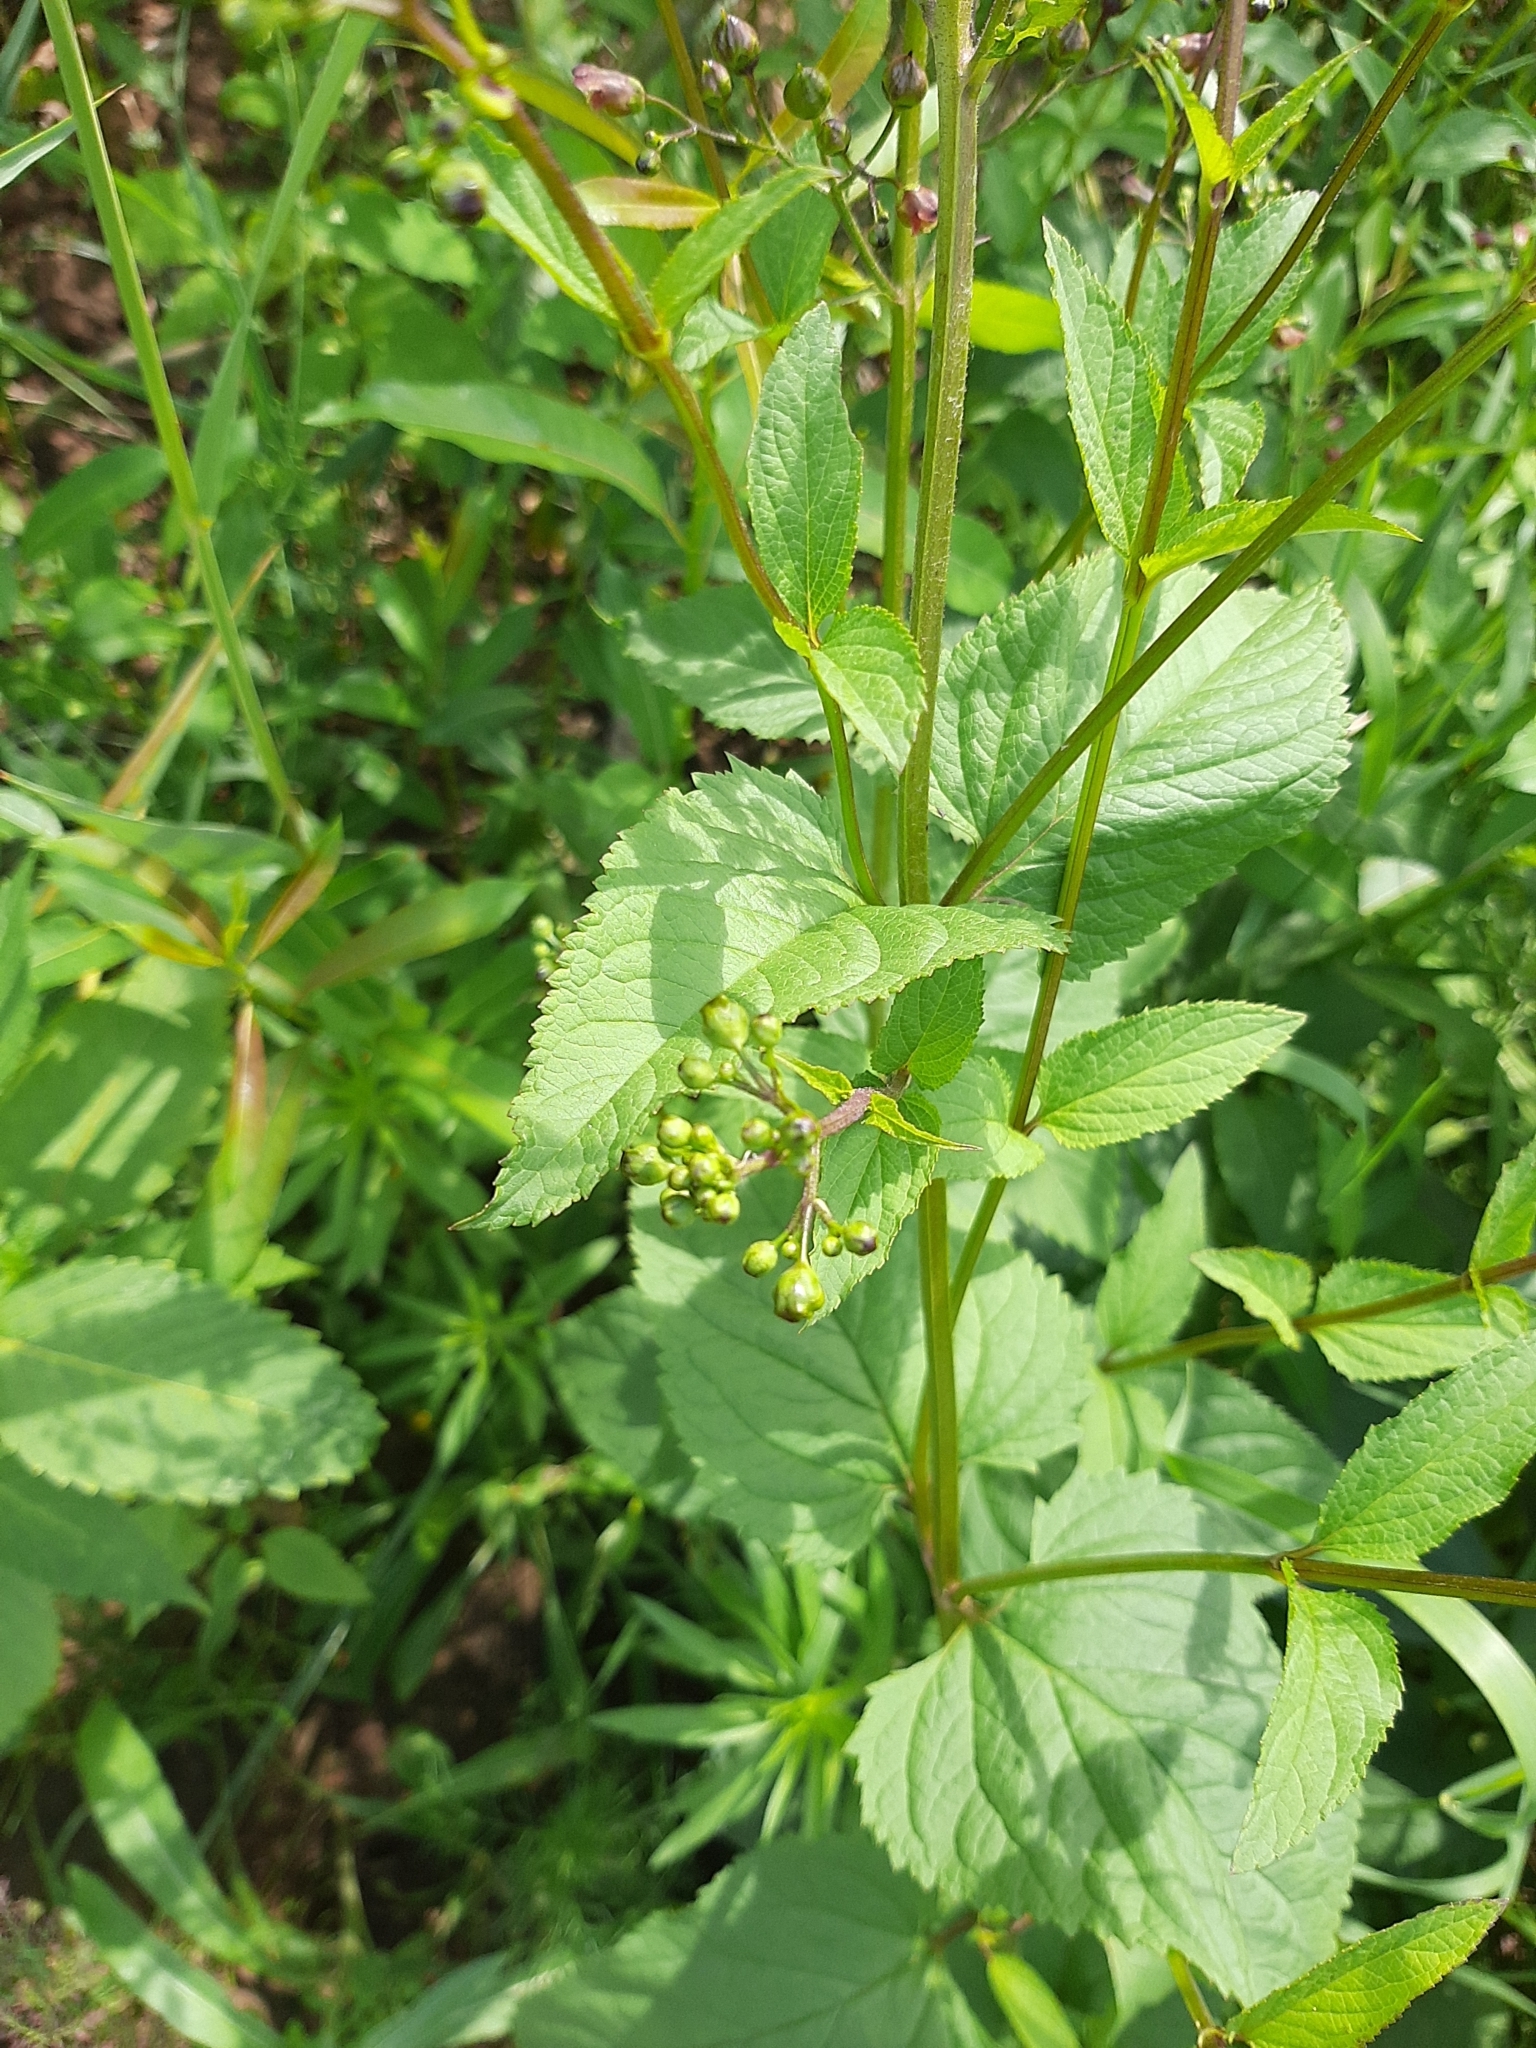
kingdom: Plantae
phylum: Tracheophyta
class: Magnoliopsida
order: Lamiales
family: Scrophulariaceae
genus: Scrophularia
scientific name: Scrophularia nodosa
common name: Common figwort
